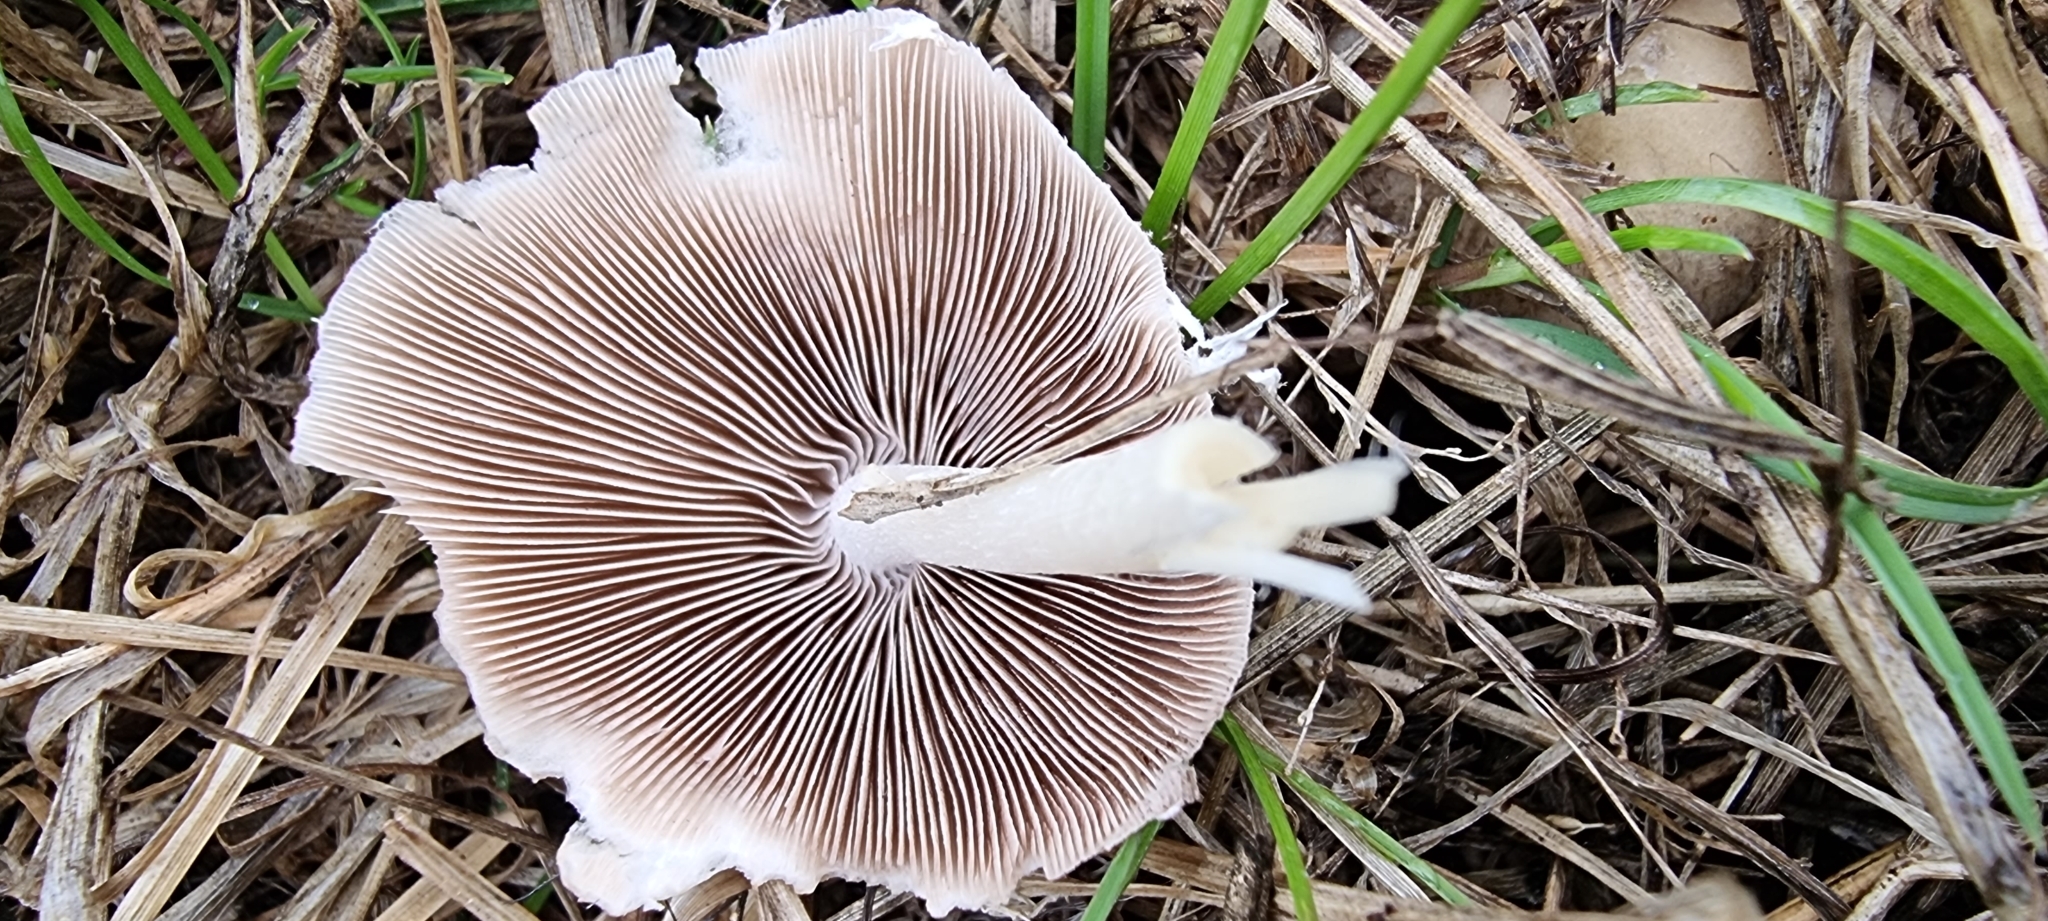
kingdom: Fungi
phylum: Basidiomycota
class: Agaricomycetes
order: Agaricales
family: Psathyrellaceae
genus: Candolleomyces
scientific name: Candolleomyces candolleanus
